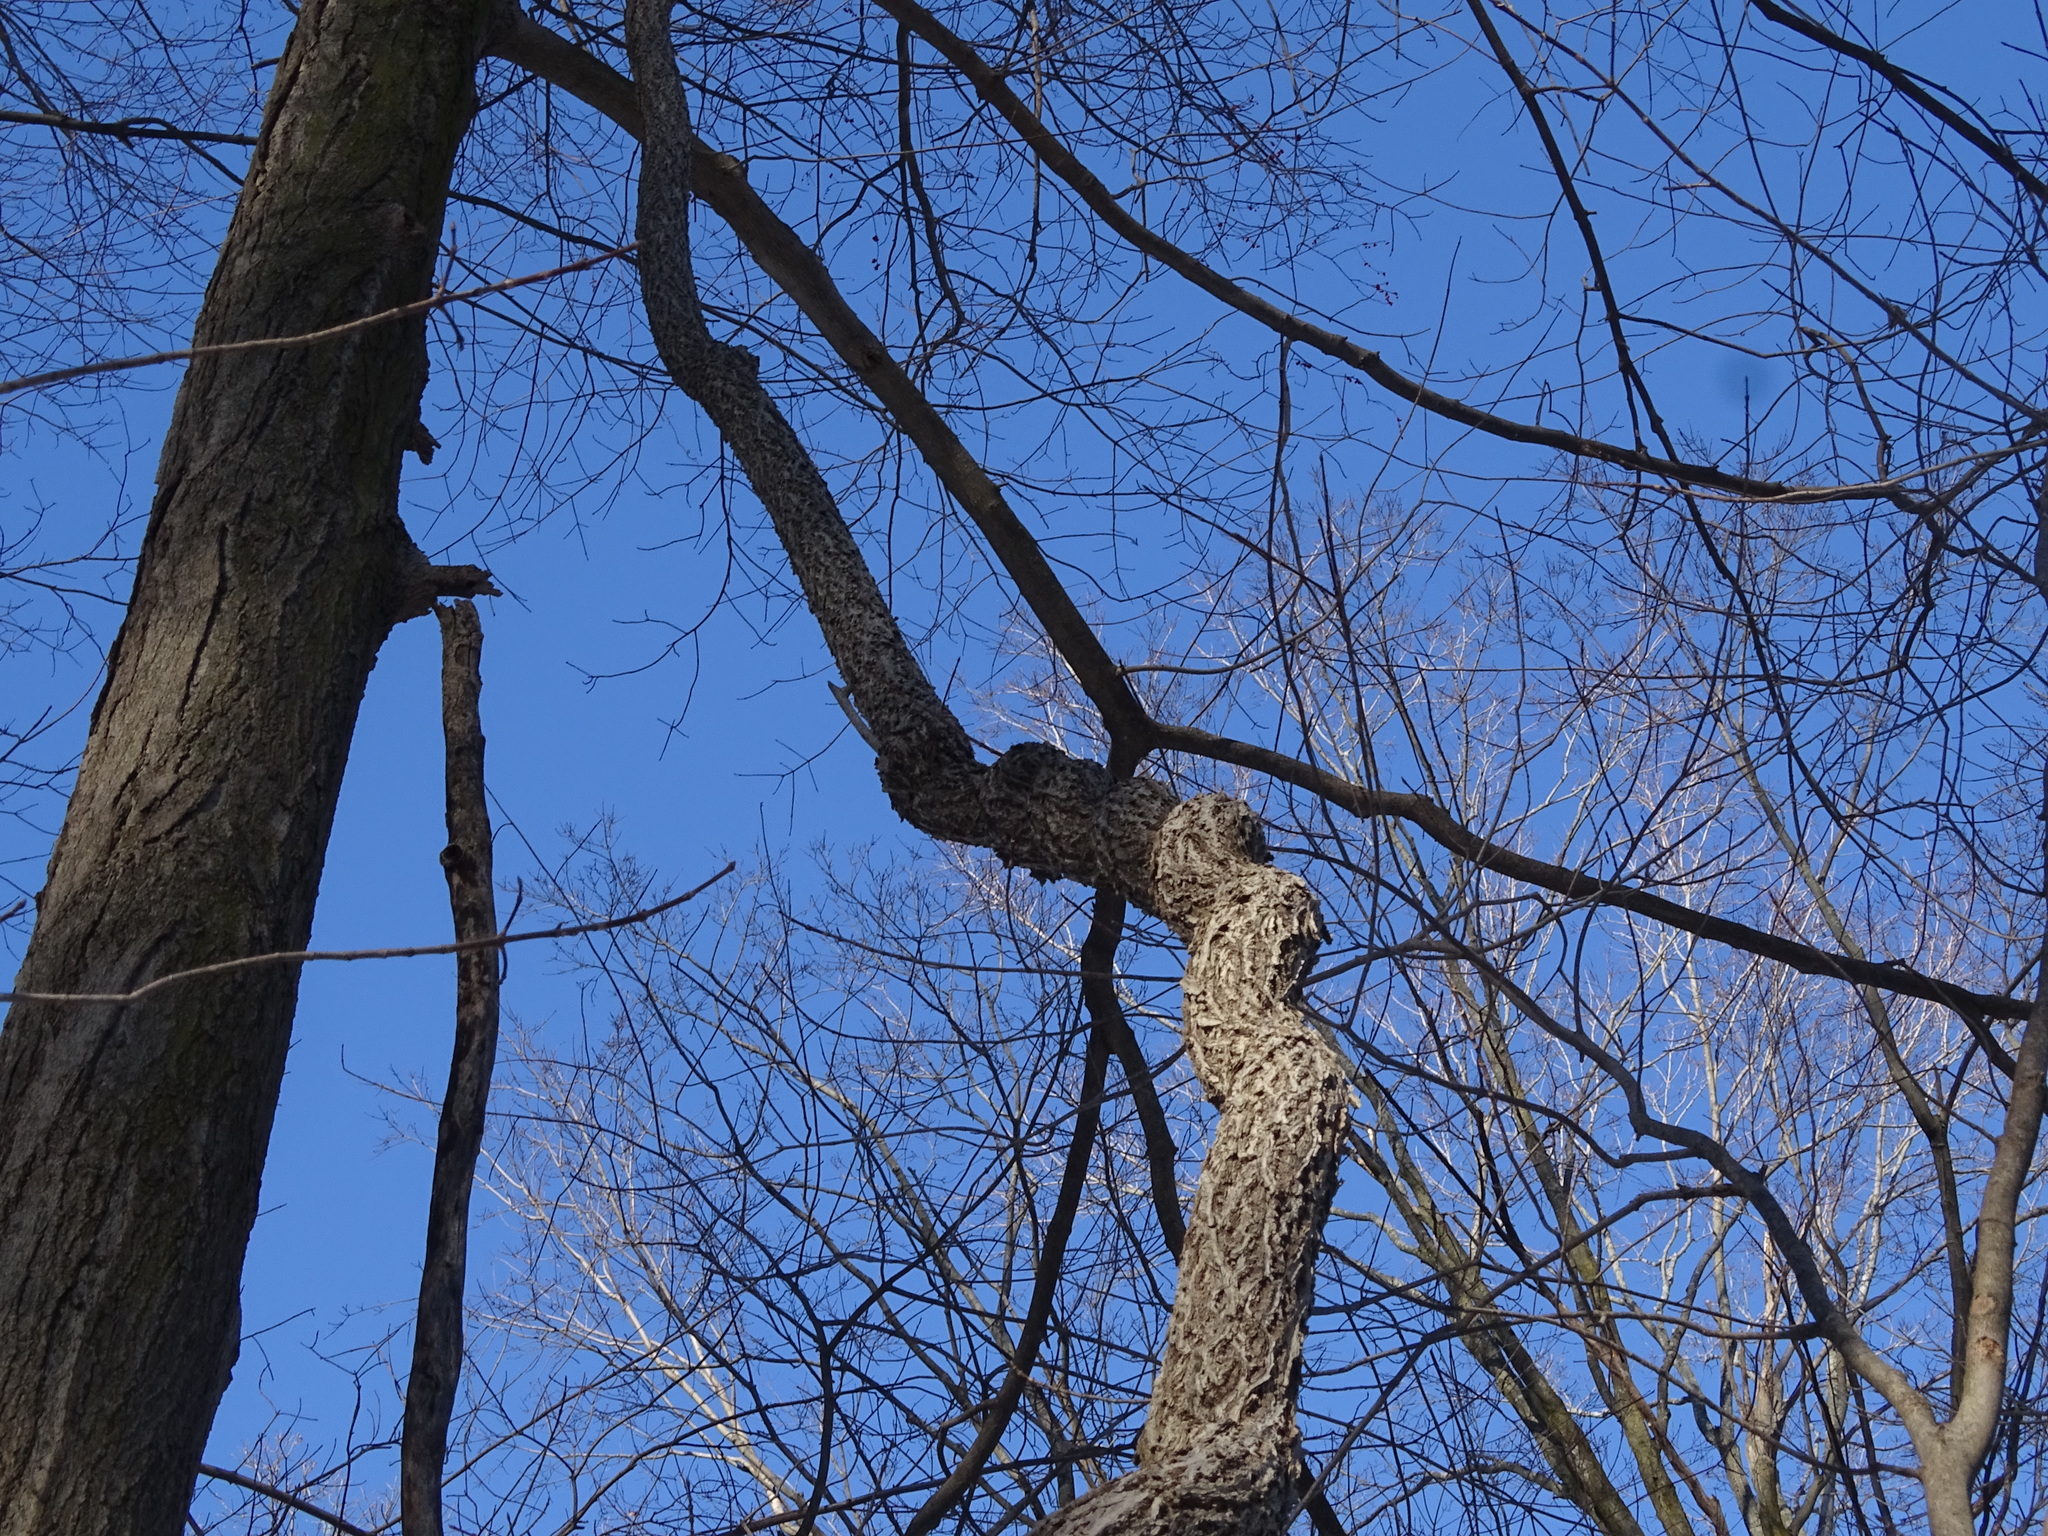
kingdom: Plantae
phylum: Tracheophyta
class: Magnoliopsida
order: Celastrales
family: Celastraceae
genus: Celastrus
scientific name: Celastrus orbiculatus
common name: Oriental bittersweet
